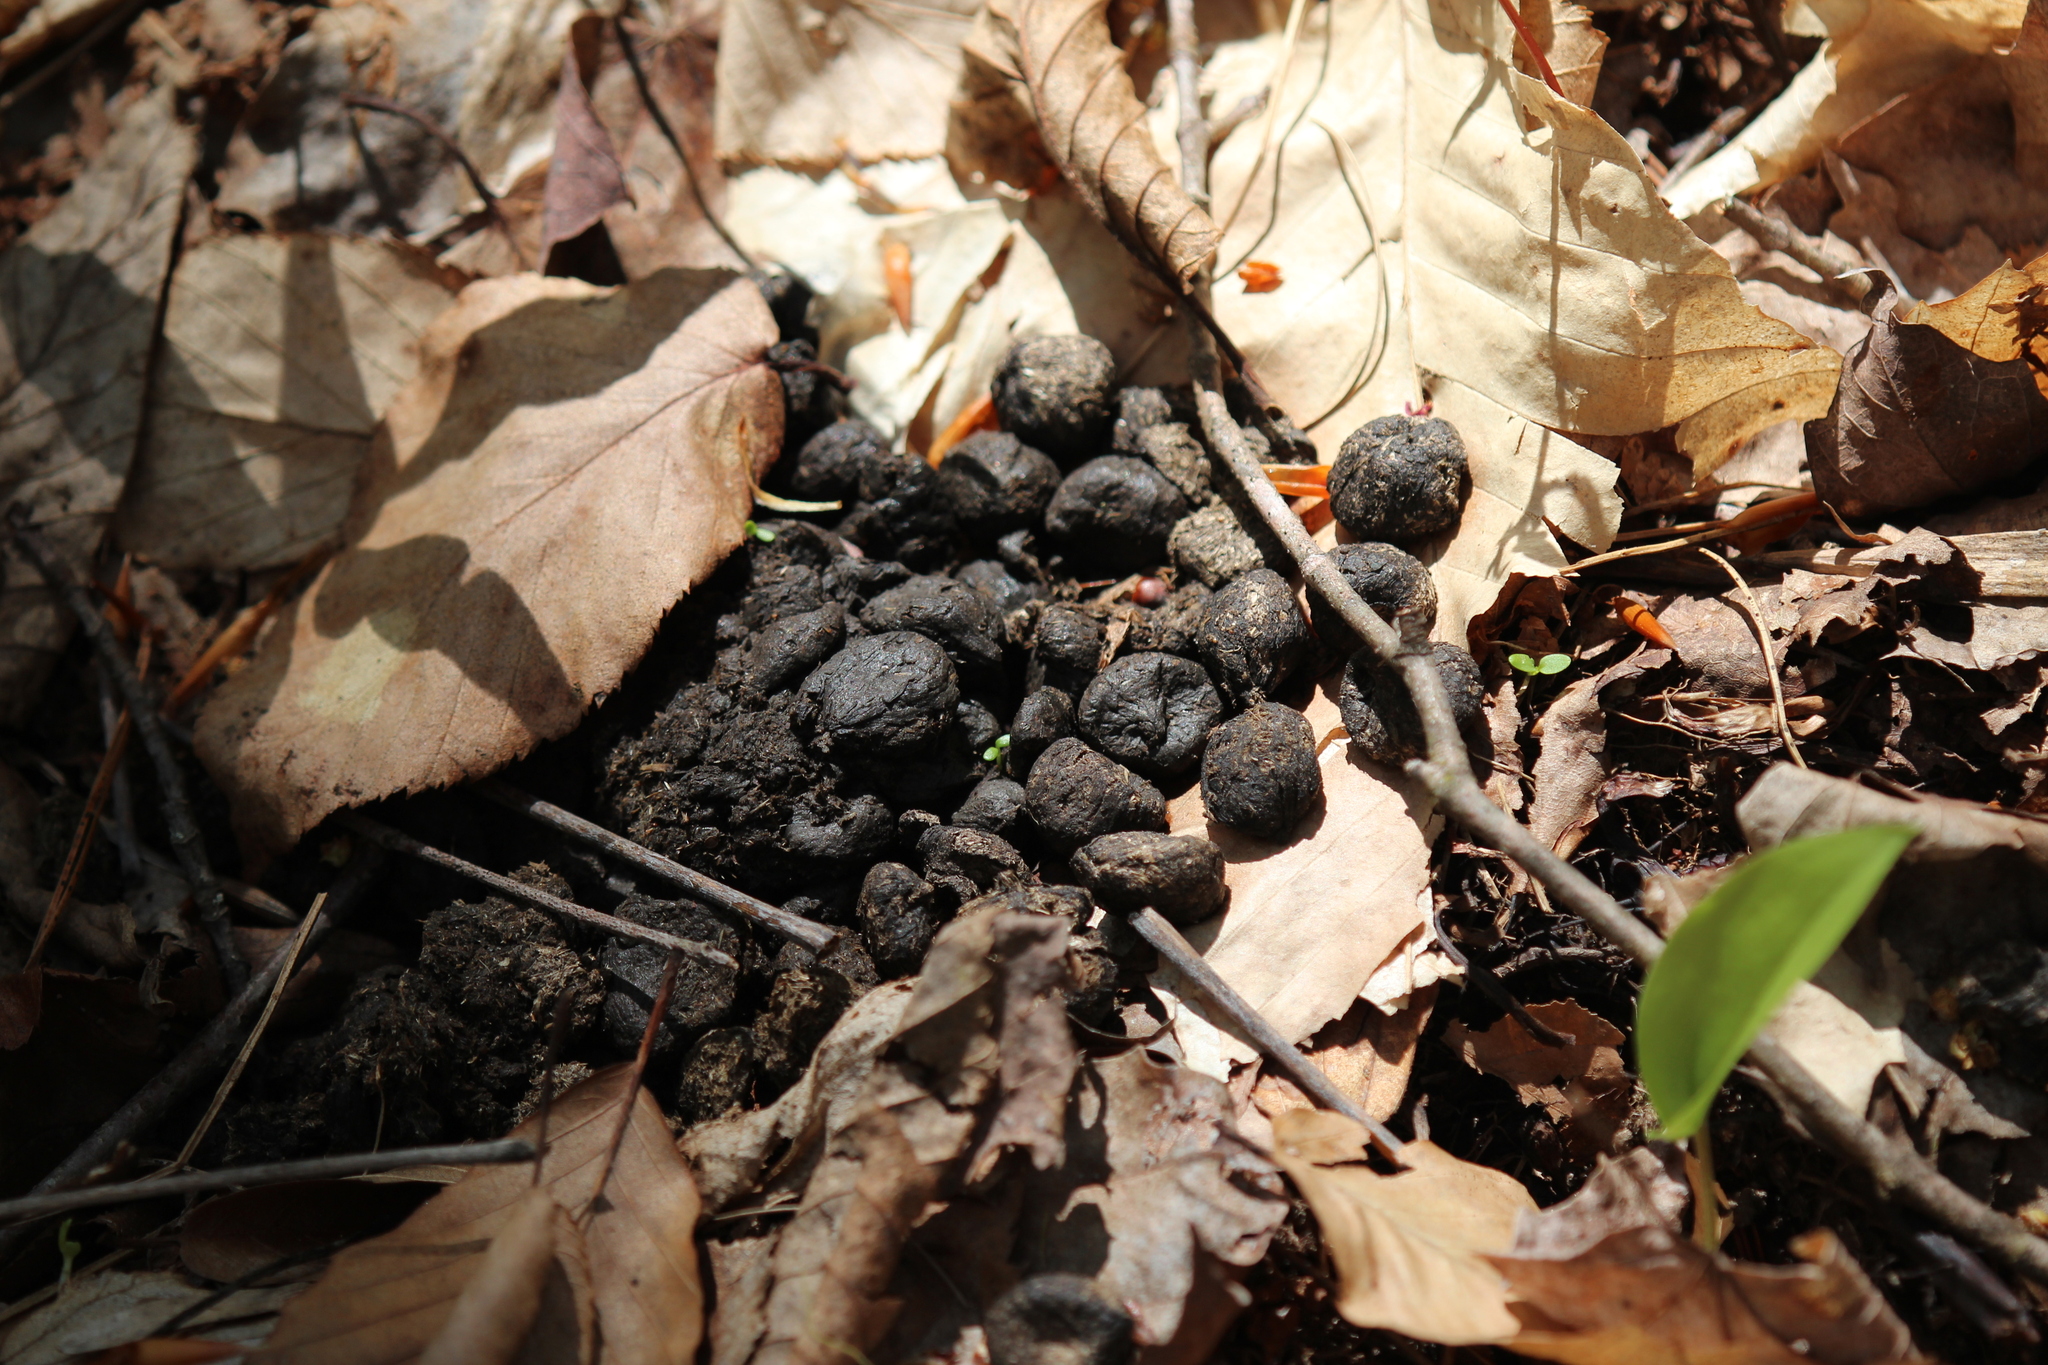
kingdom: Animalia
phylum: Chordata
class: Mammalia
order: Artiodactyla
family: Cervidae
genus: Odocoileus
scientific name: Odocoileus virginianus
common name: White-tailed deer
